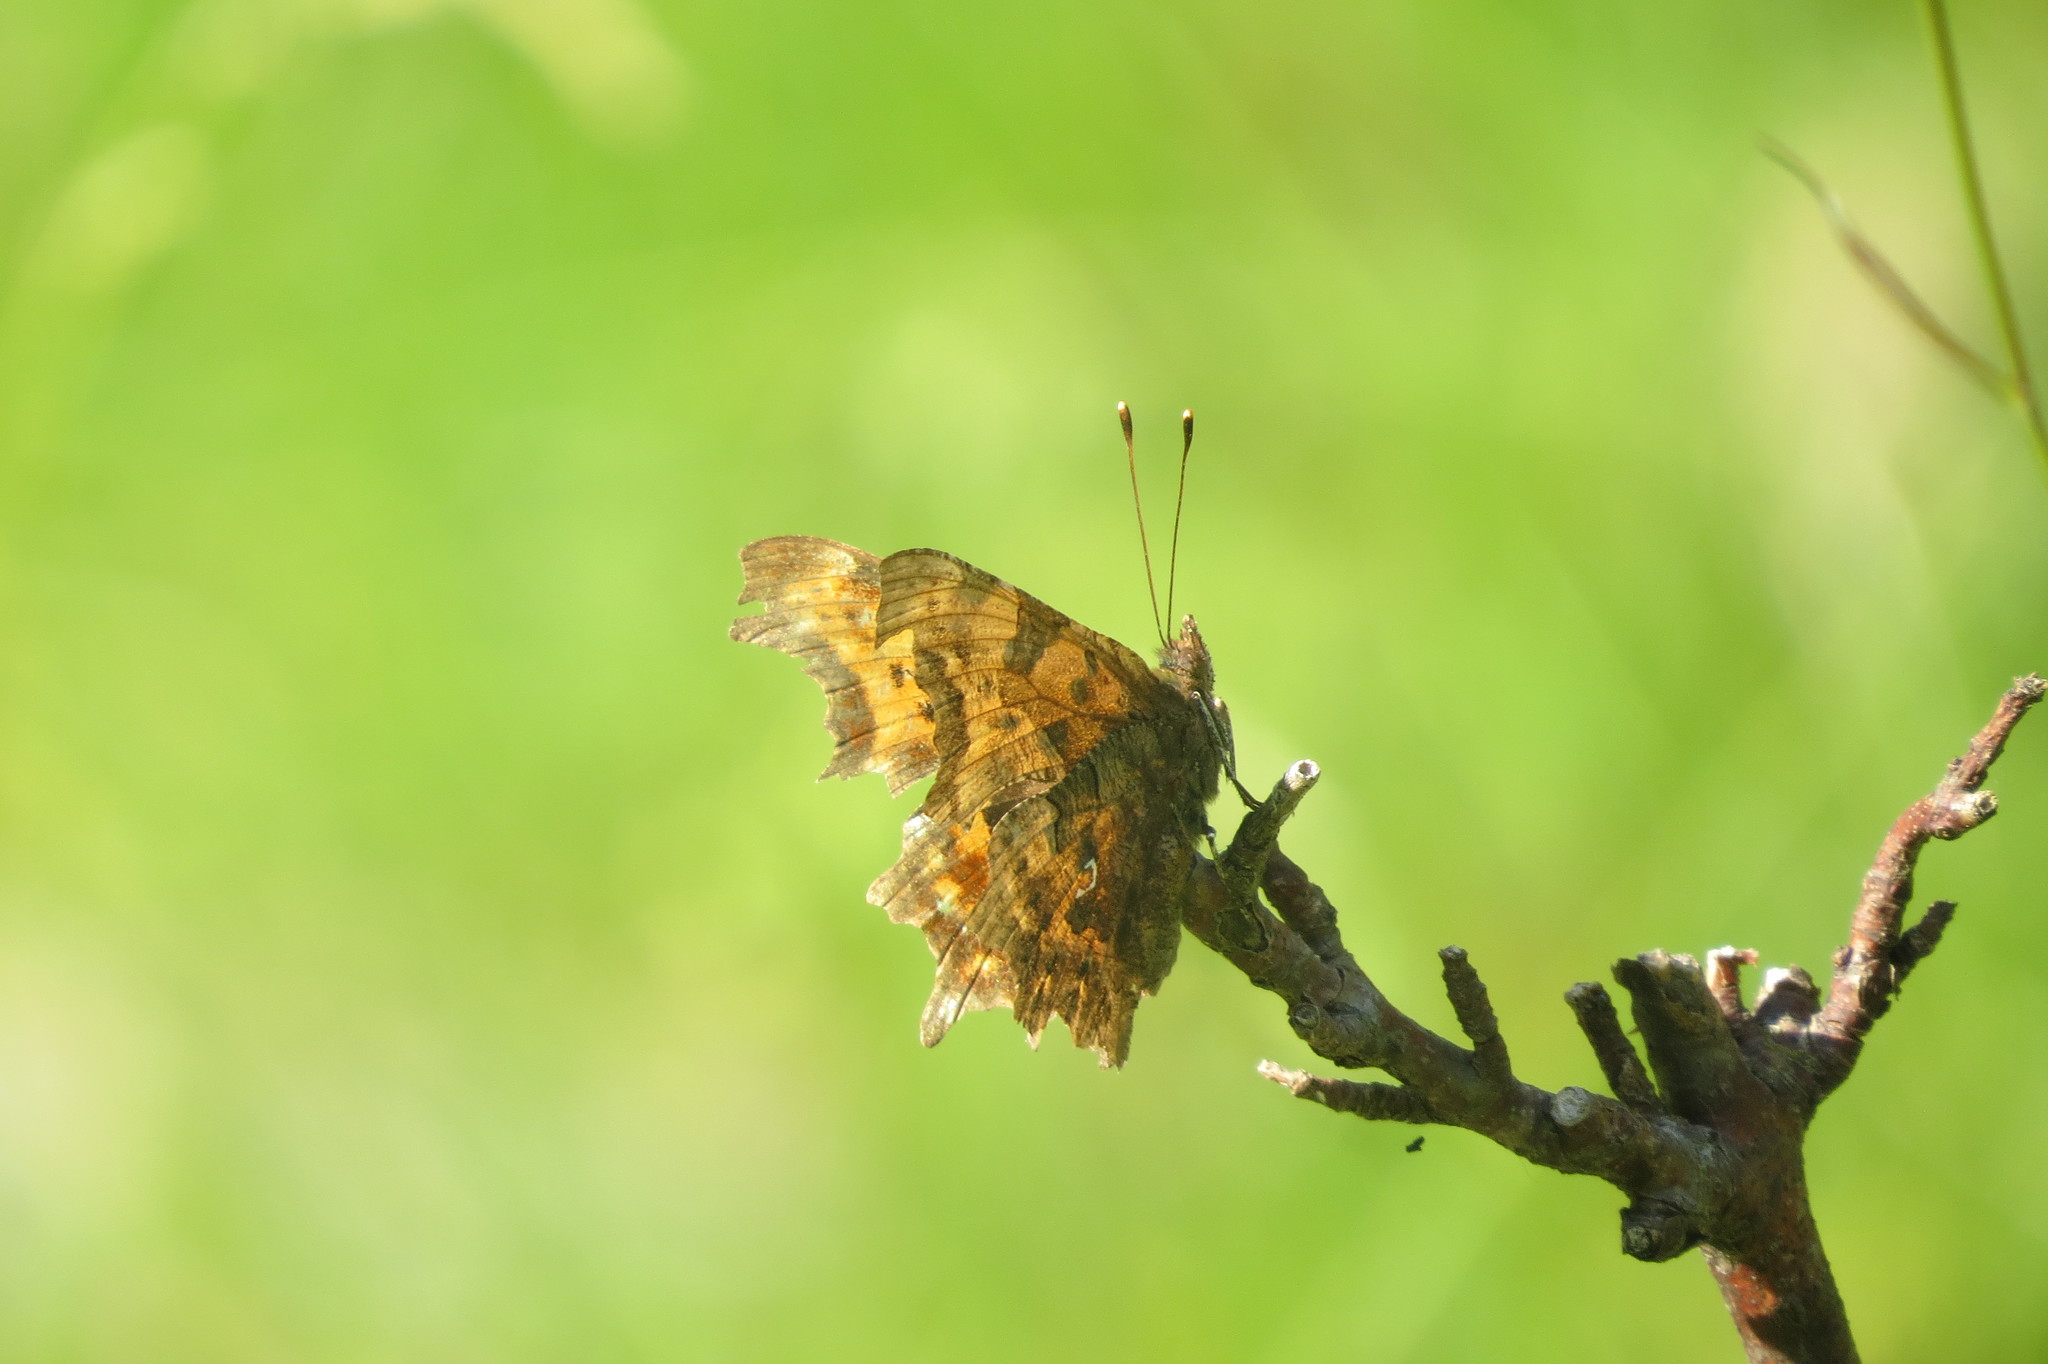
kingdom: Animalia
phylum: Arthropoda
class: Insecta
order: Lepidoptera
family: Nymphalidae
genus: Polygonia
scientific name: Polygonia c-album
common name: Comma
